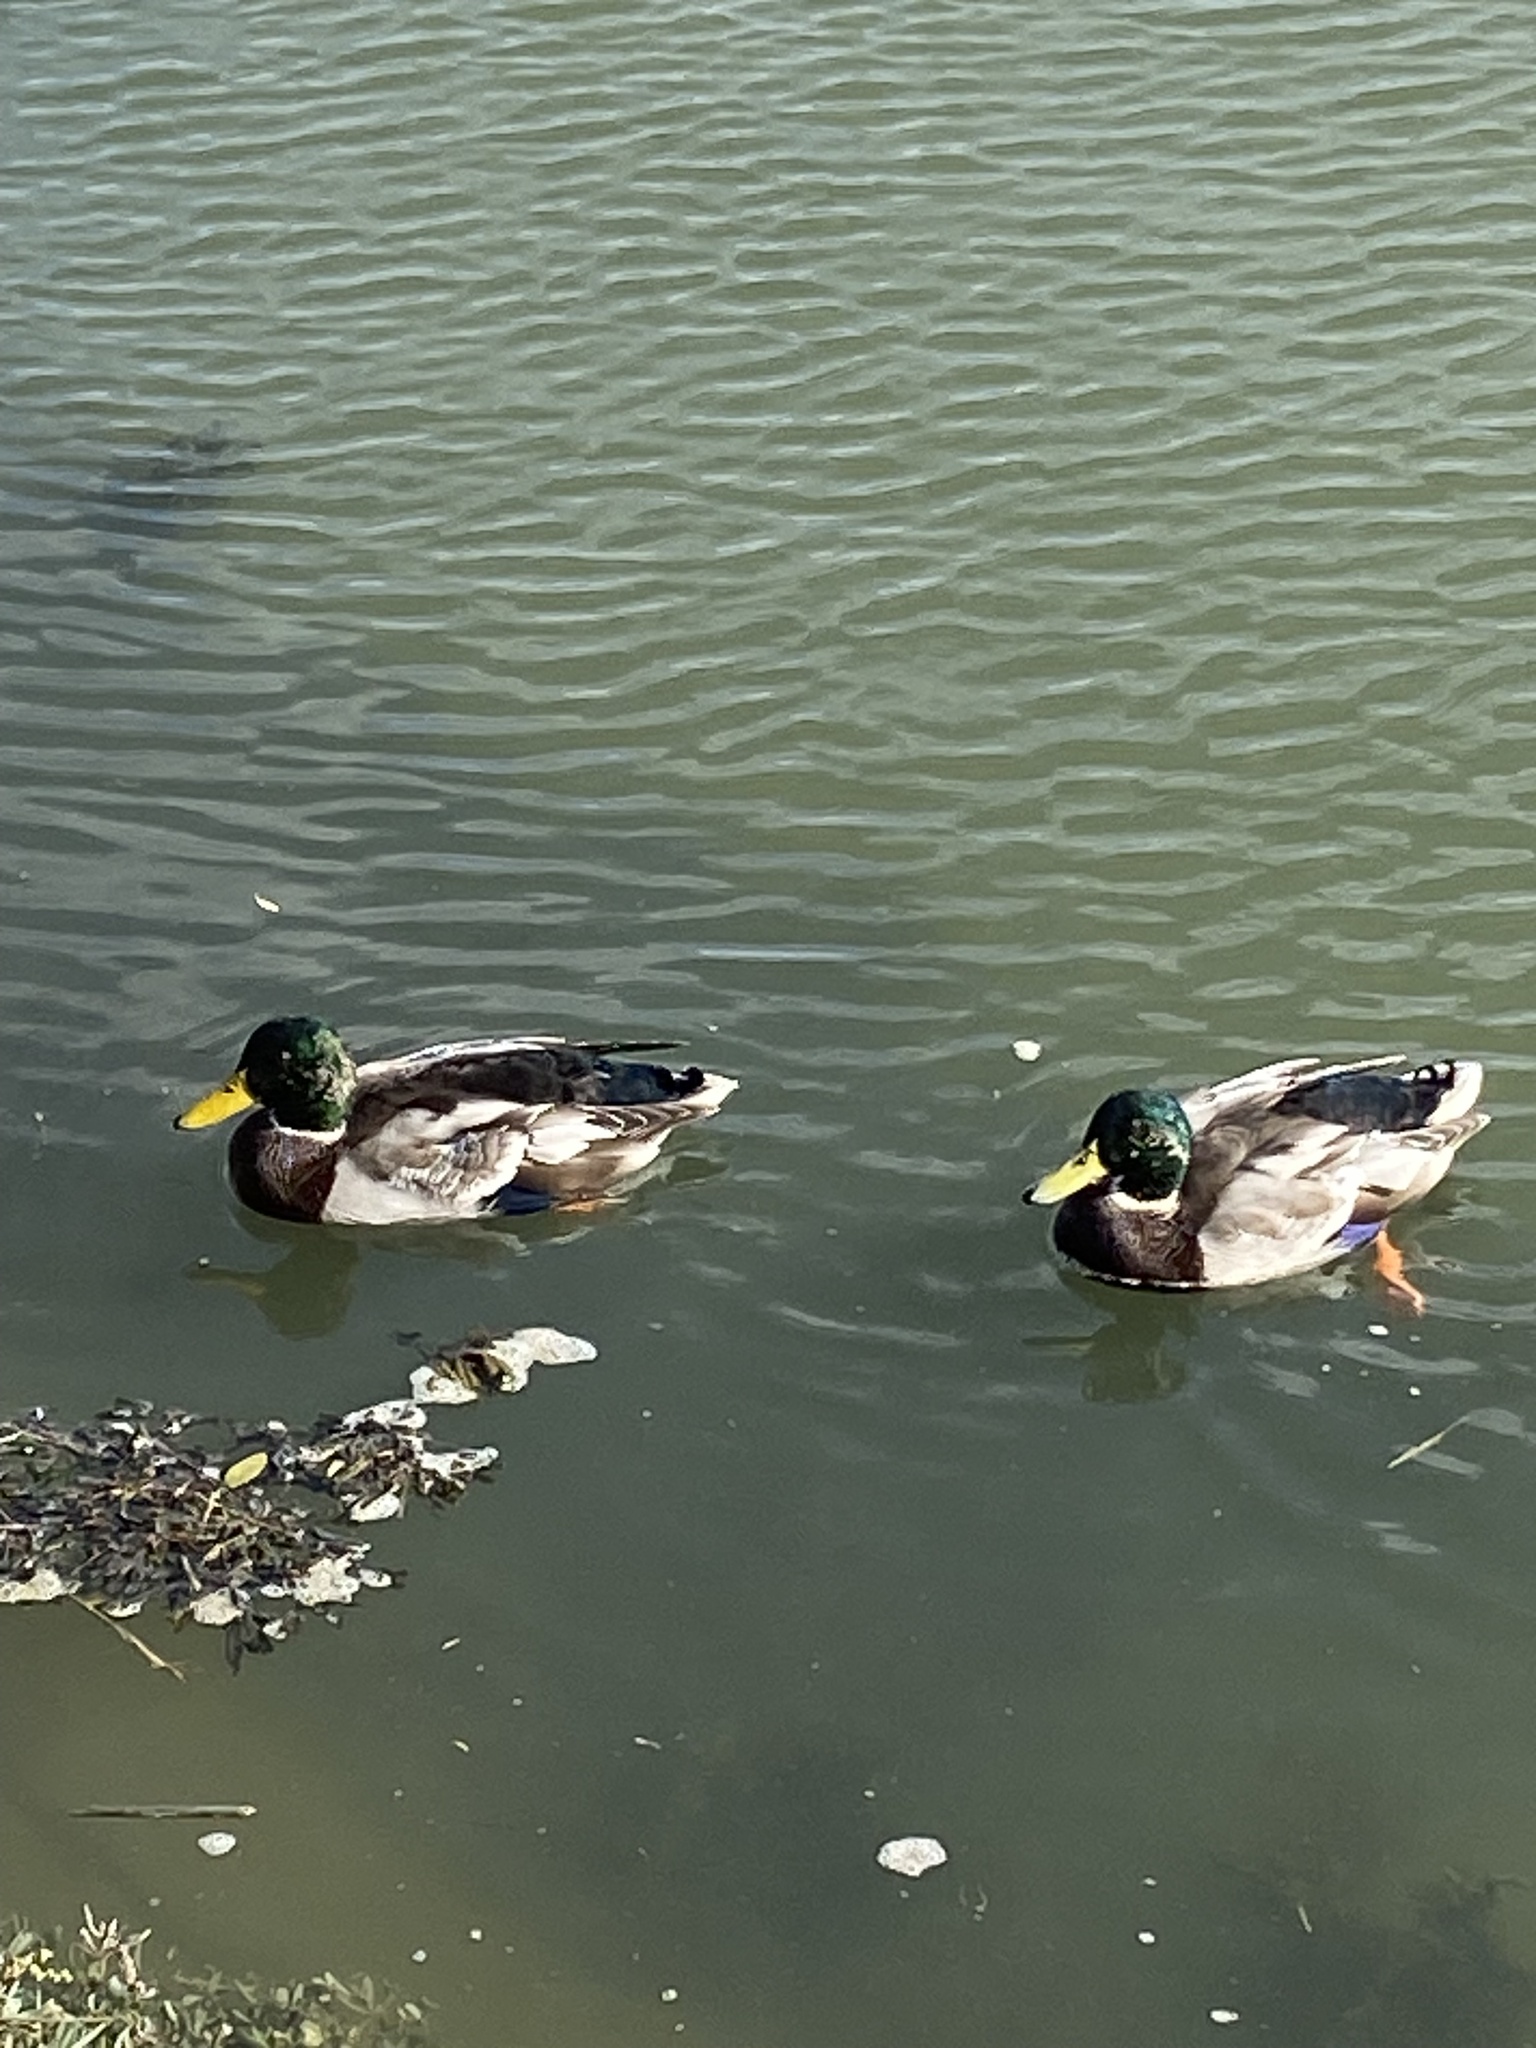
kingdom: Animalia
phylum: Chordata
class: Aves
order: Anseriformes
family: Anatidae
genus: Anas
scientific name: Anas platyrhynchos
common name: Mallard
